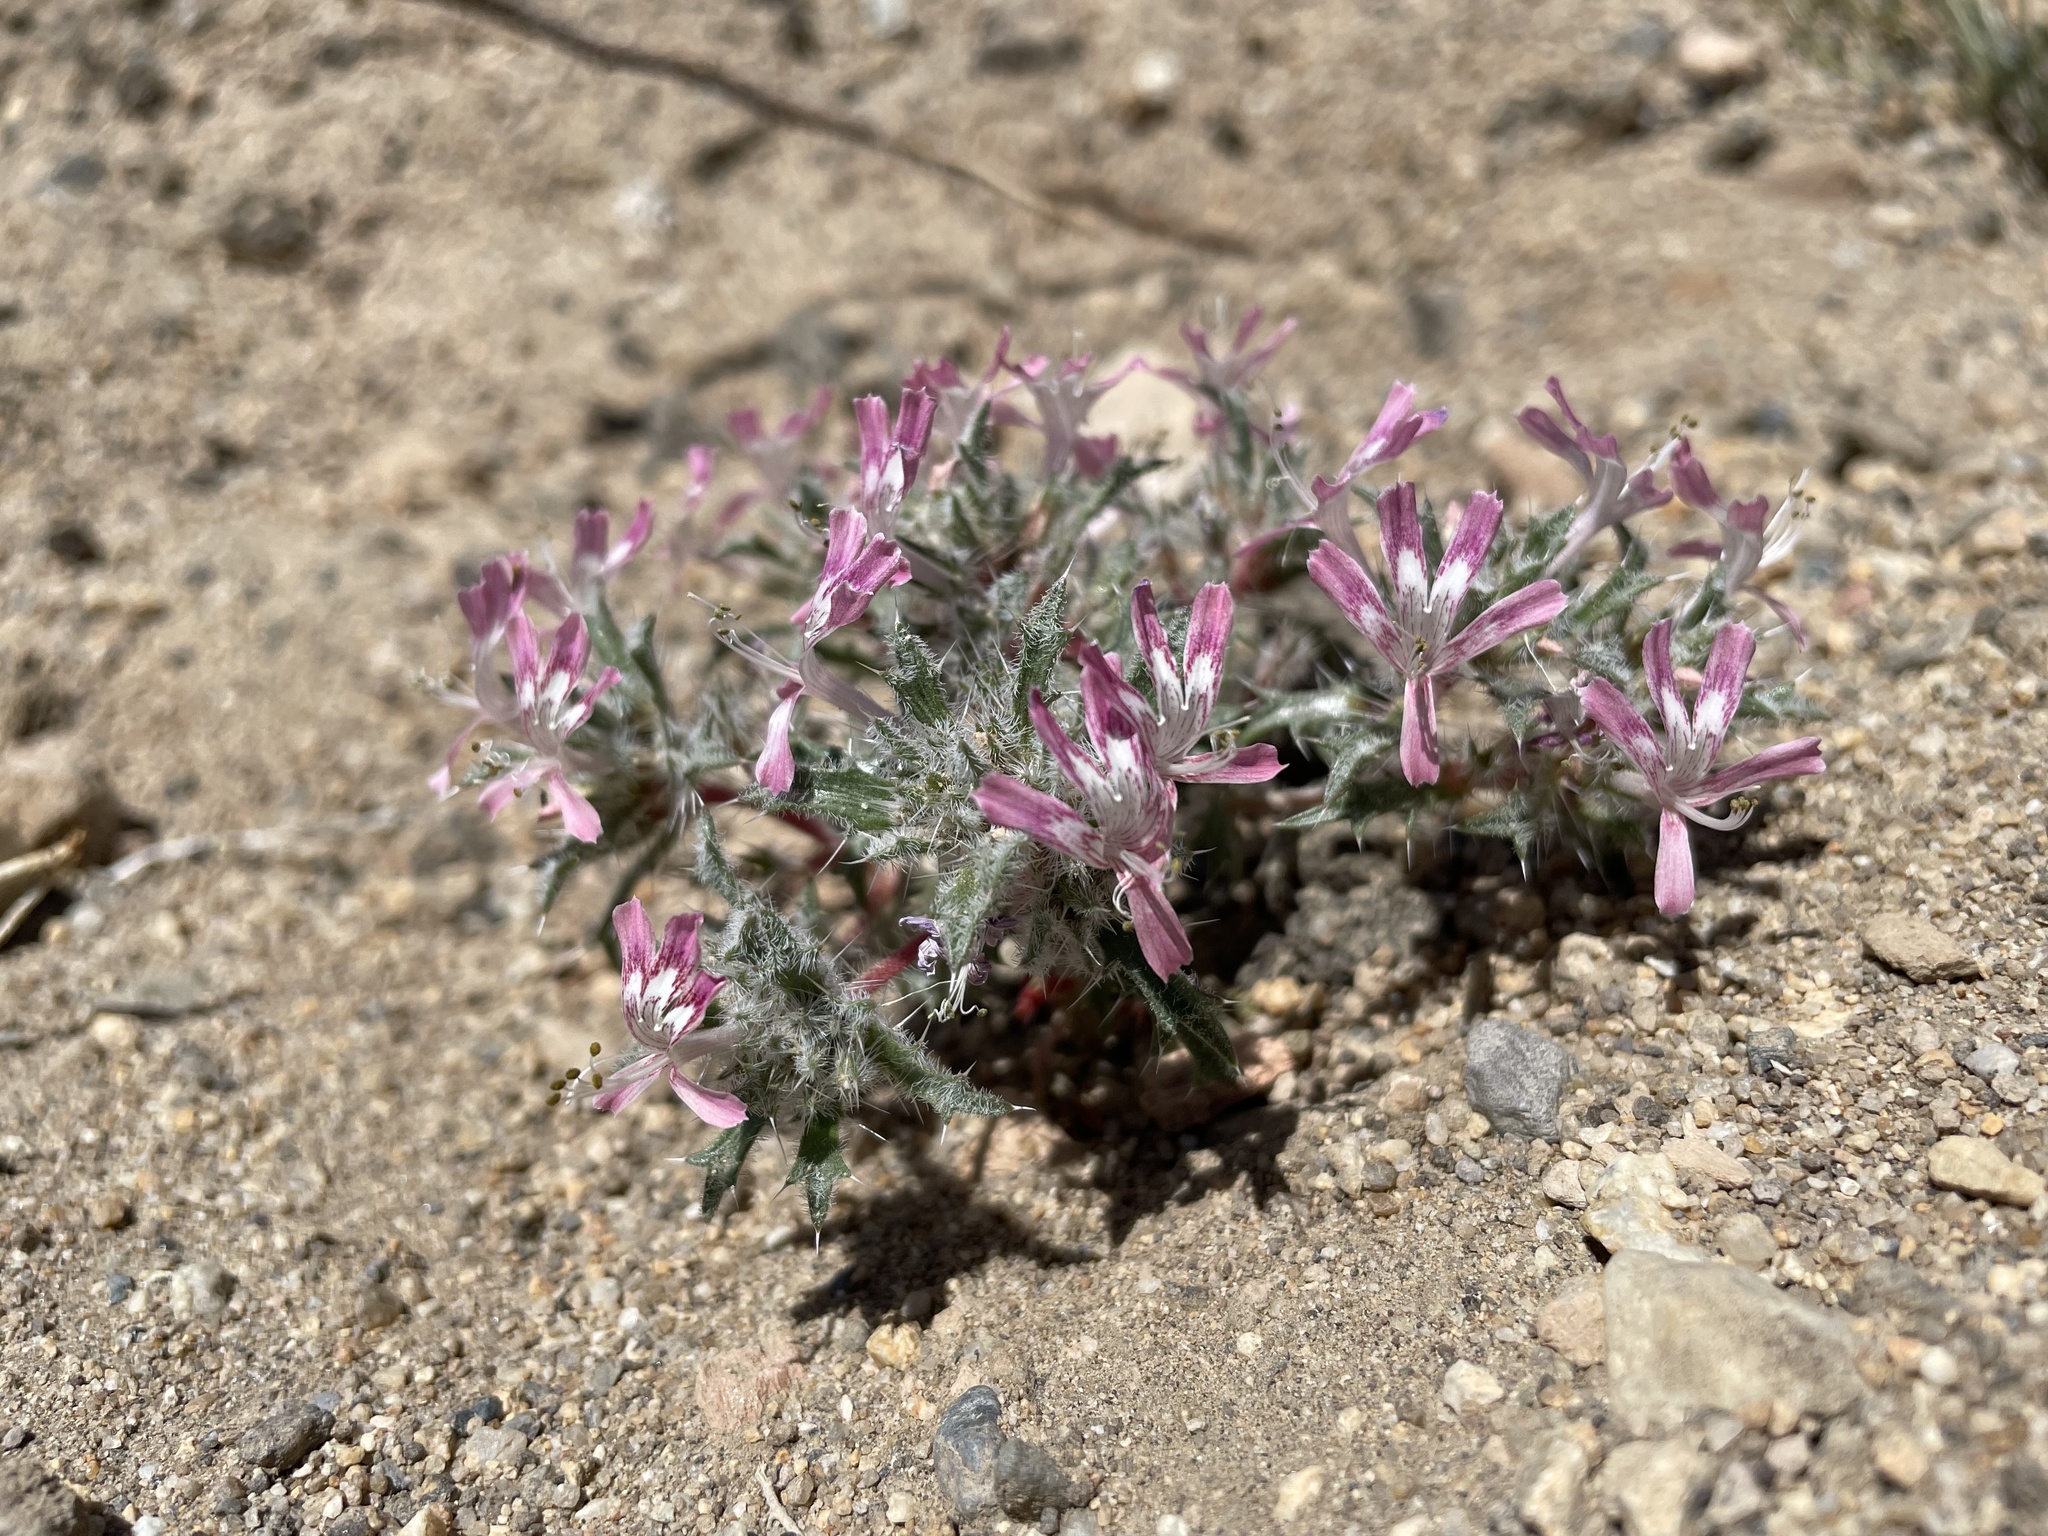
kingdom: Plantae
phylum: Tracheophyta
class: Magnoliopsida
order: Ericales
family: Polemoniaceae
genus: Loeseliastrum
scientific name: Loeseliastrum matthewsii
